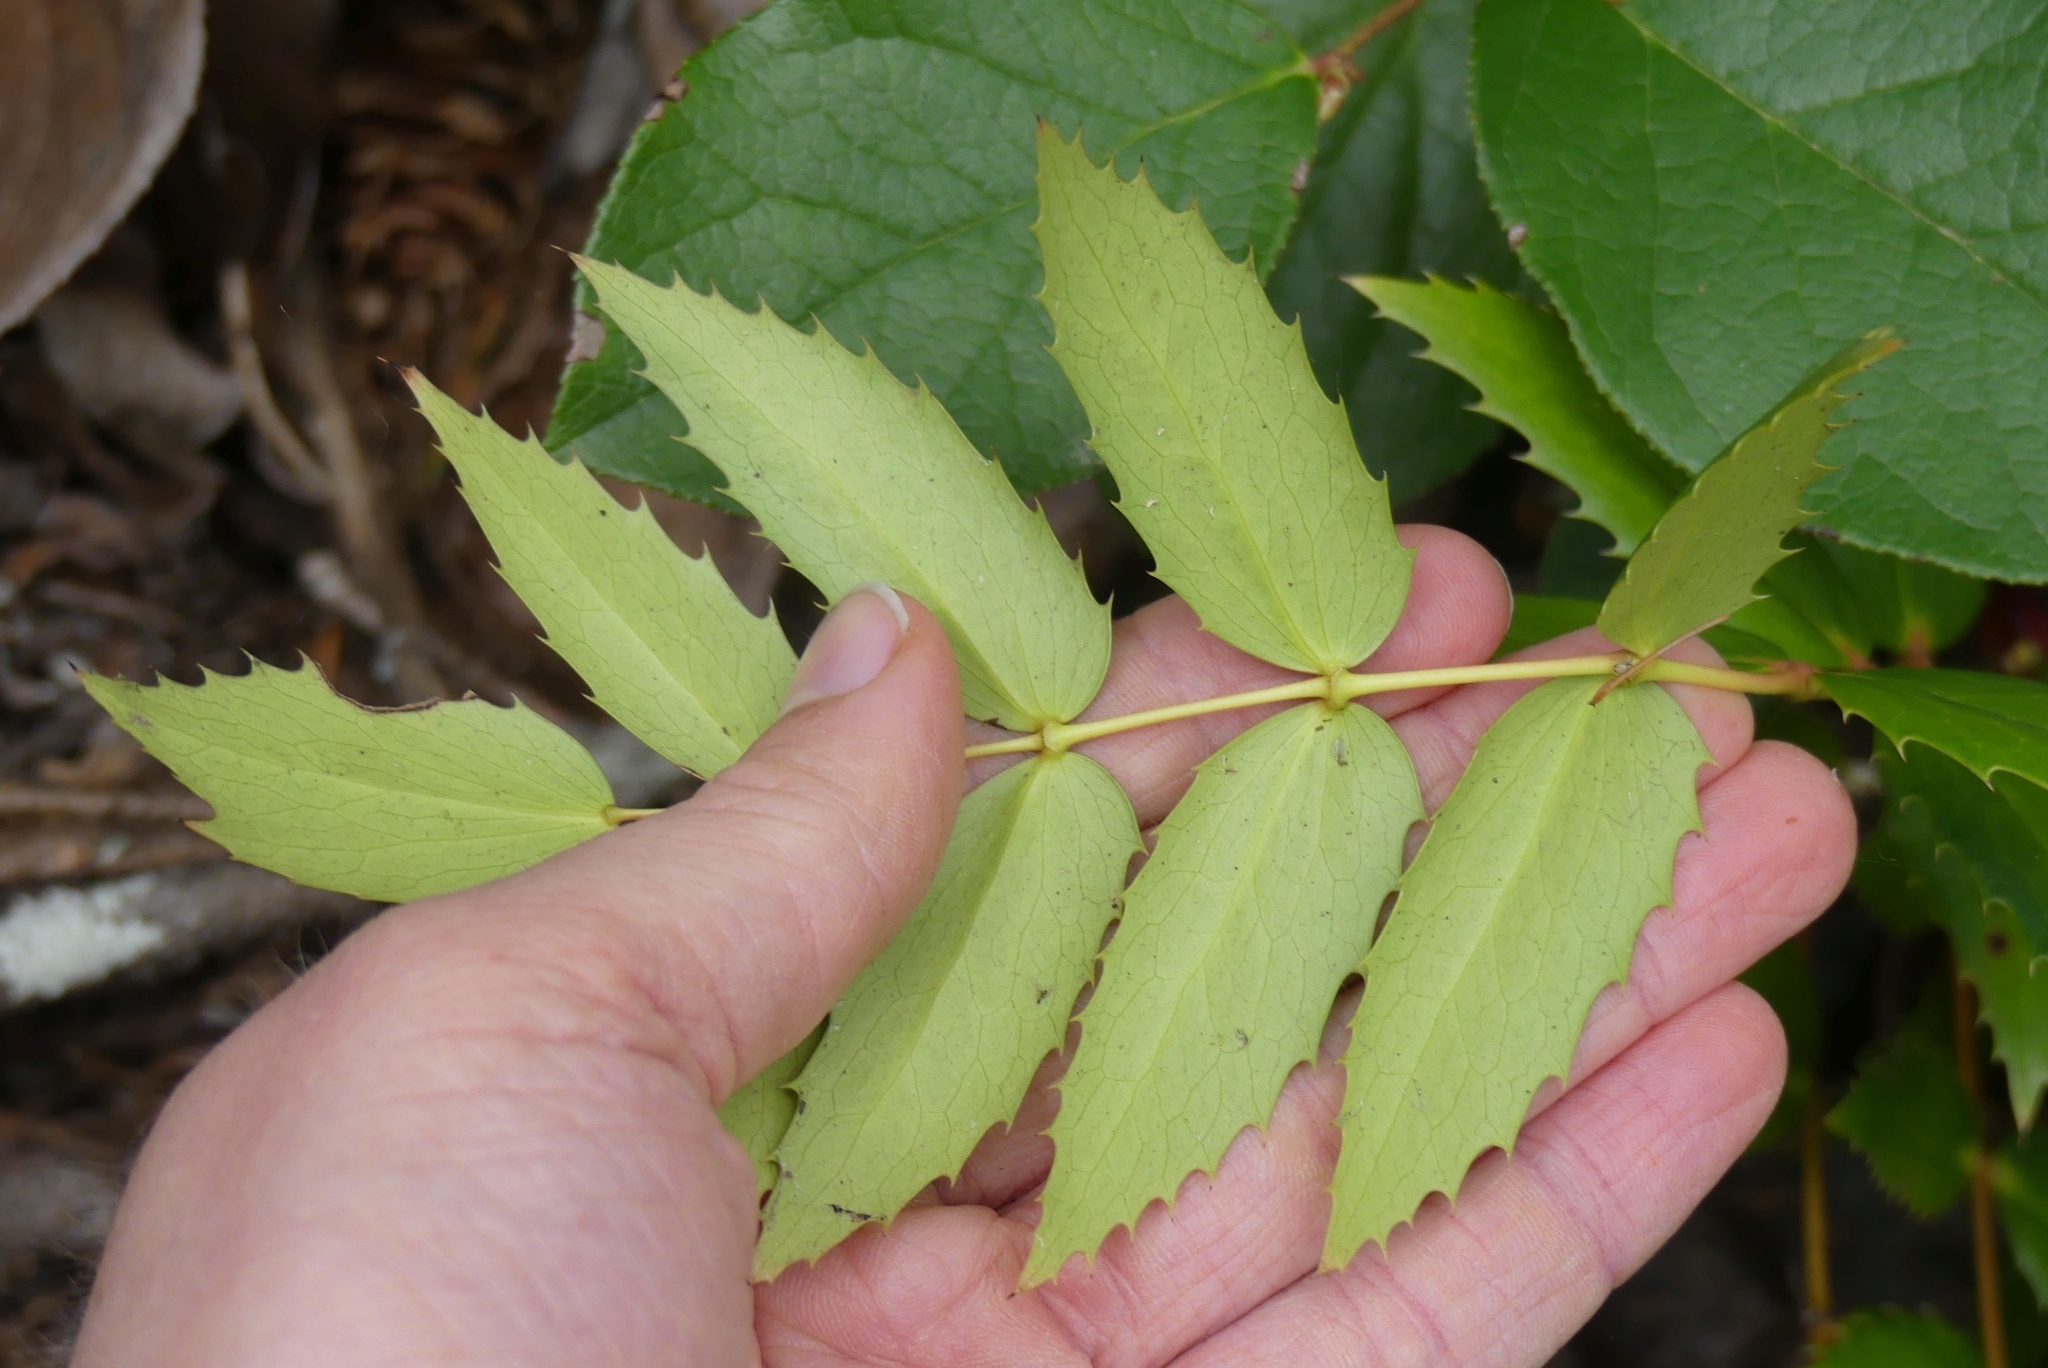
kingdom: Plantae
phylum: Tracheophyta
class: Magnoliopsida
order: Ranunculales
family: Berberidaceae
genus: Mahonia
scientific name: Mahonia nervosa
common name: Cascade oregon-grape
